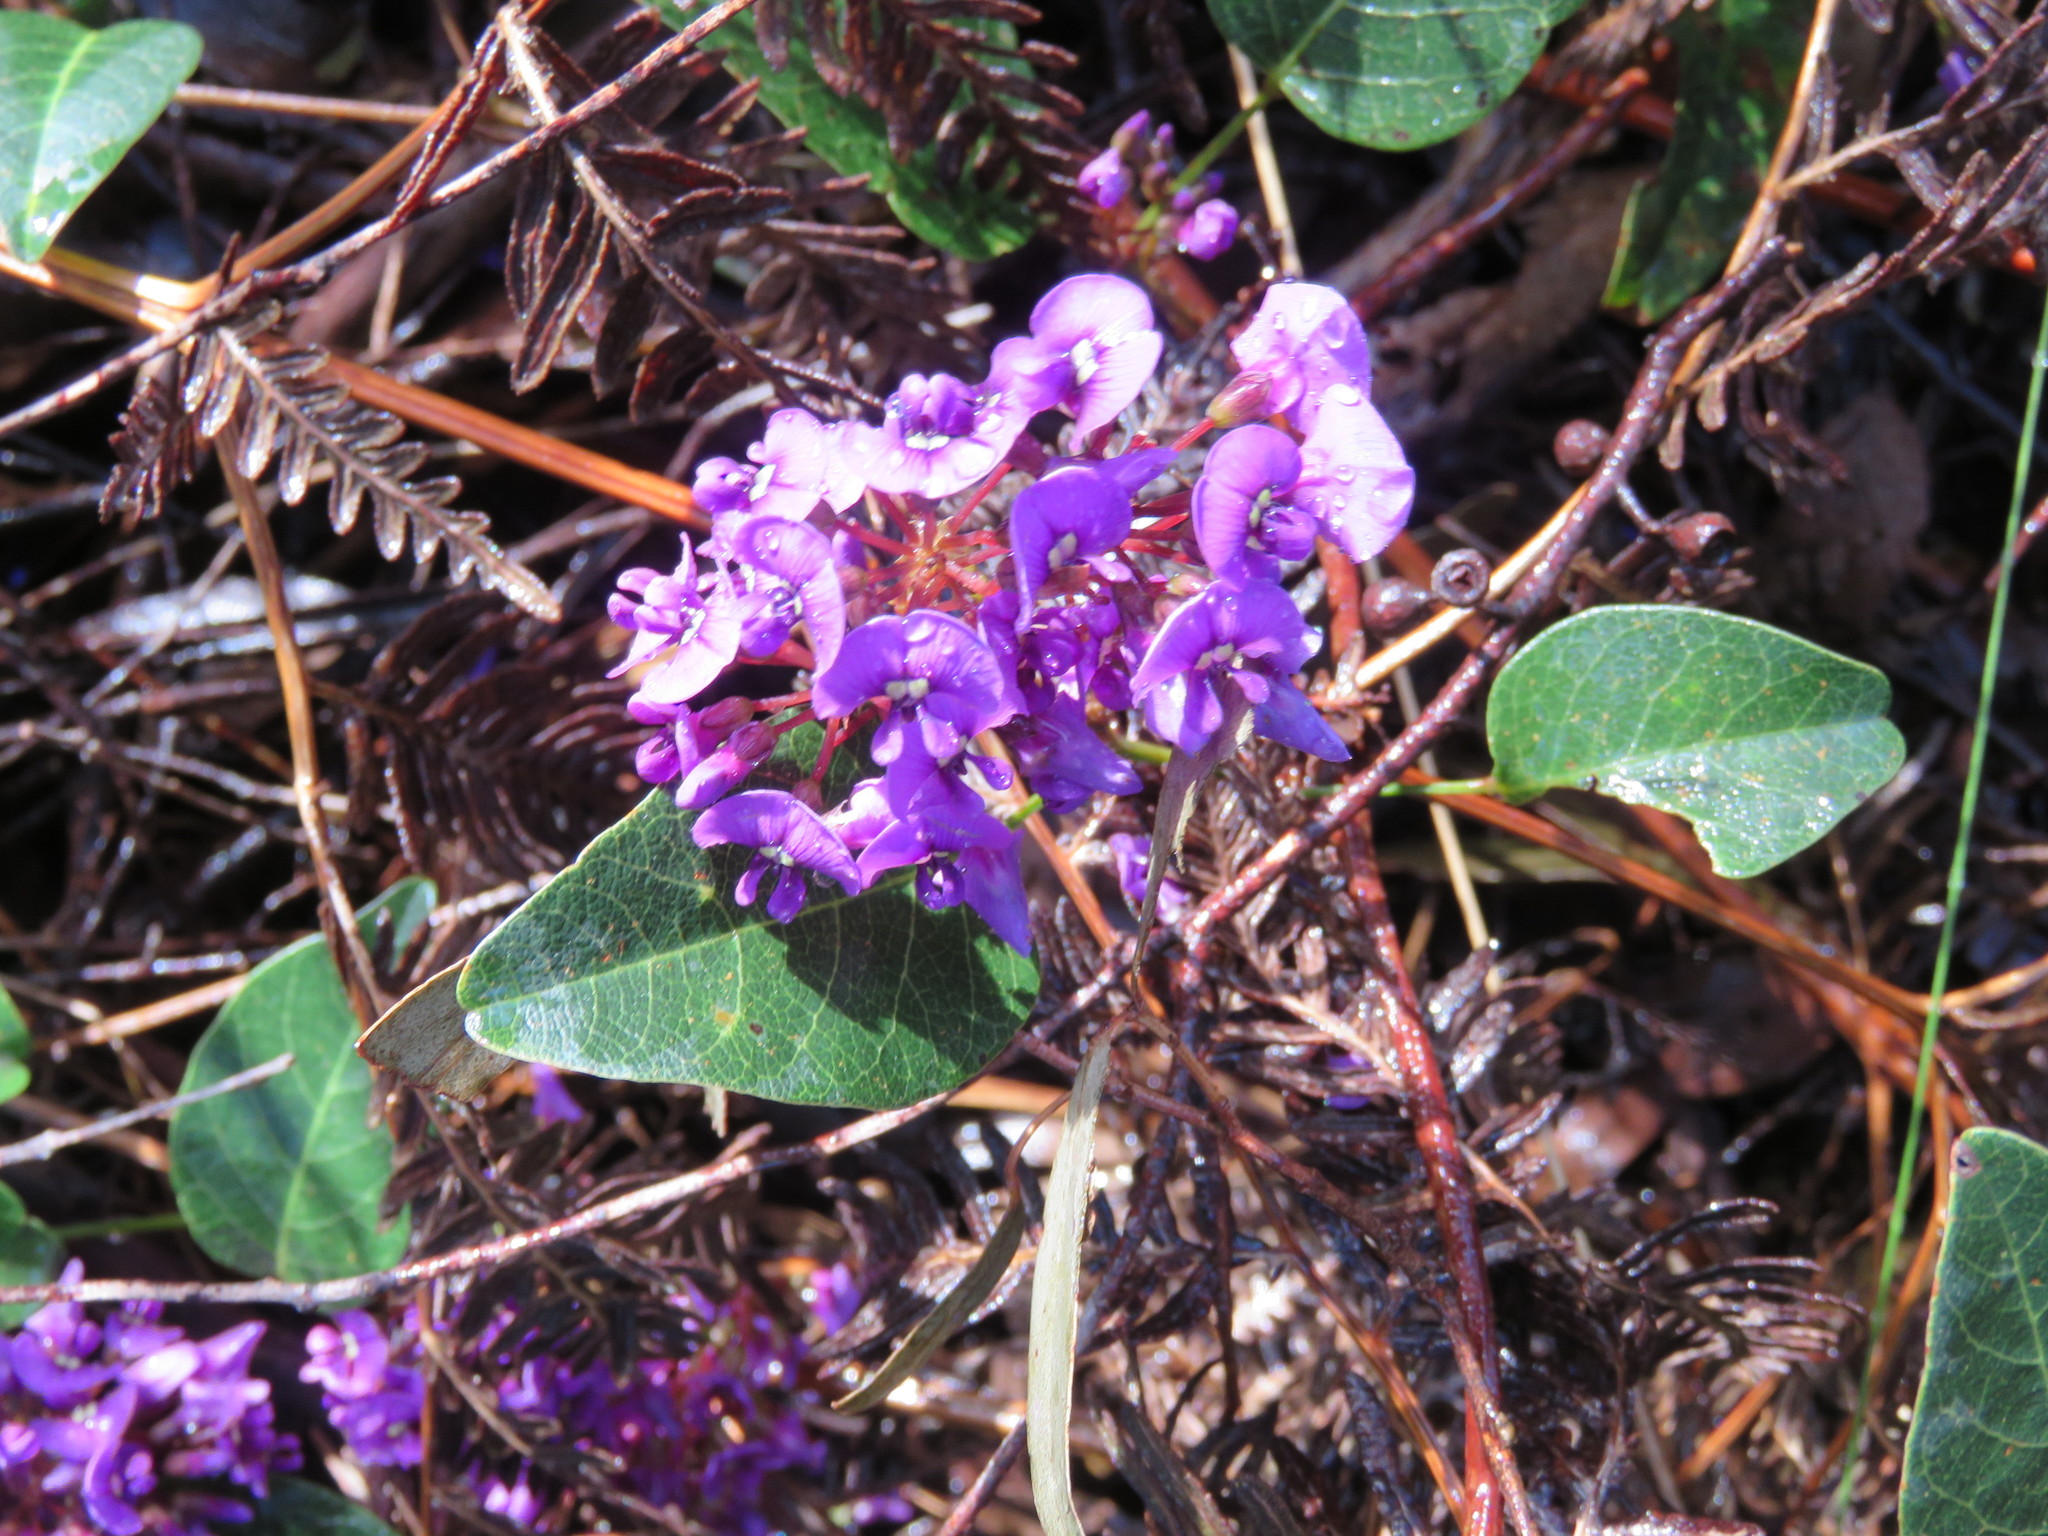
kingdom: Plantae
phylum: Tracheophyta
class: Magnoliopsida
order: Fabales
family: Fabaceae
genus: Hardenbergia
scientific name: Hardenbergia violacea
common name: Coral-pea
